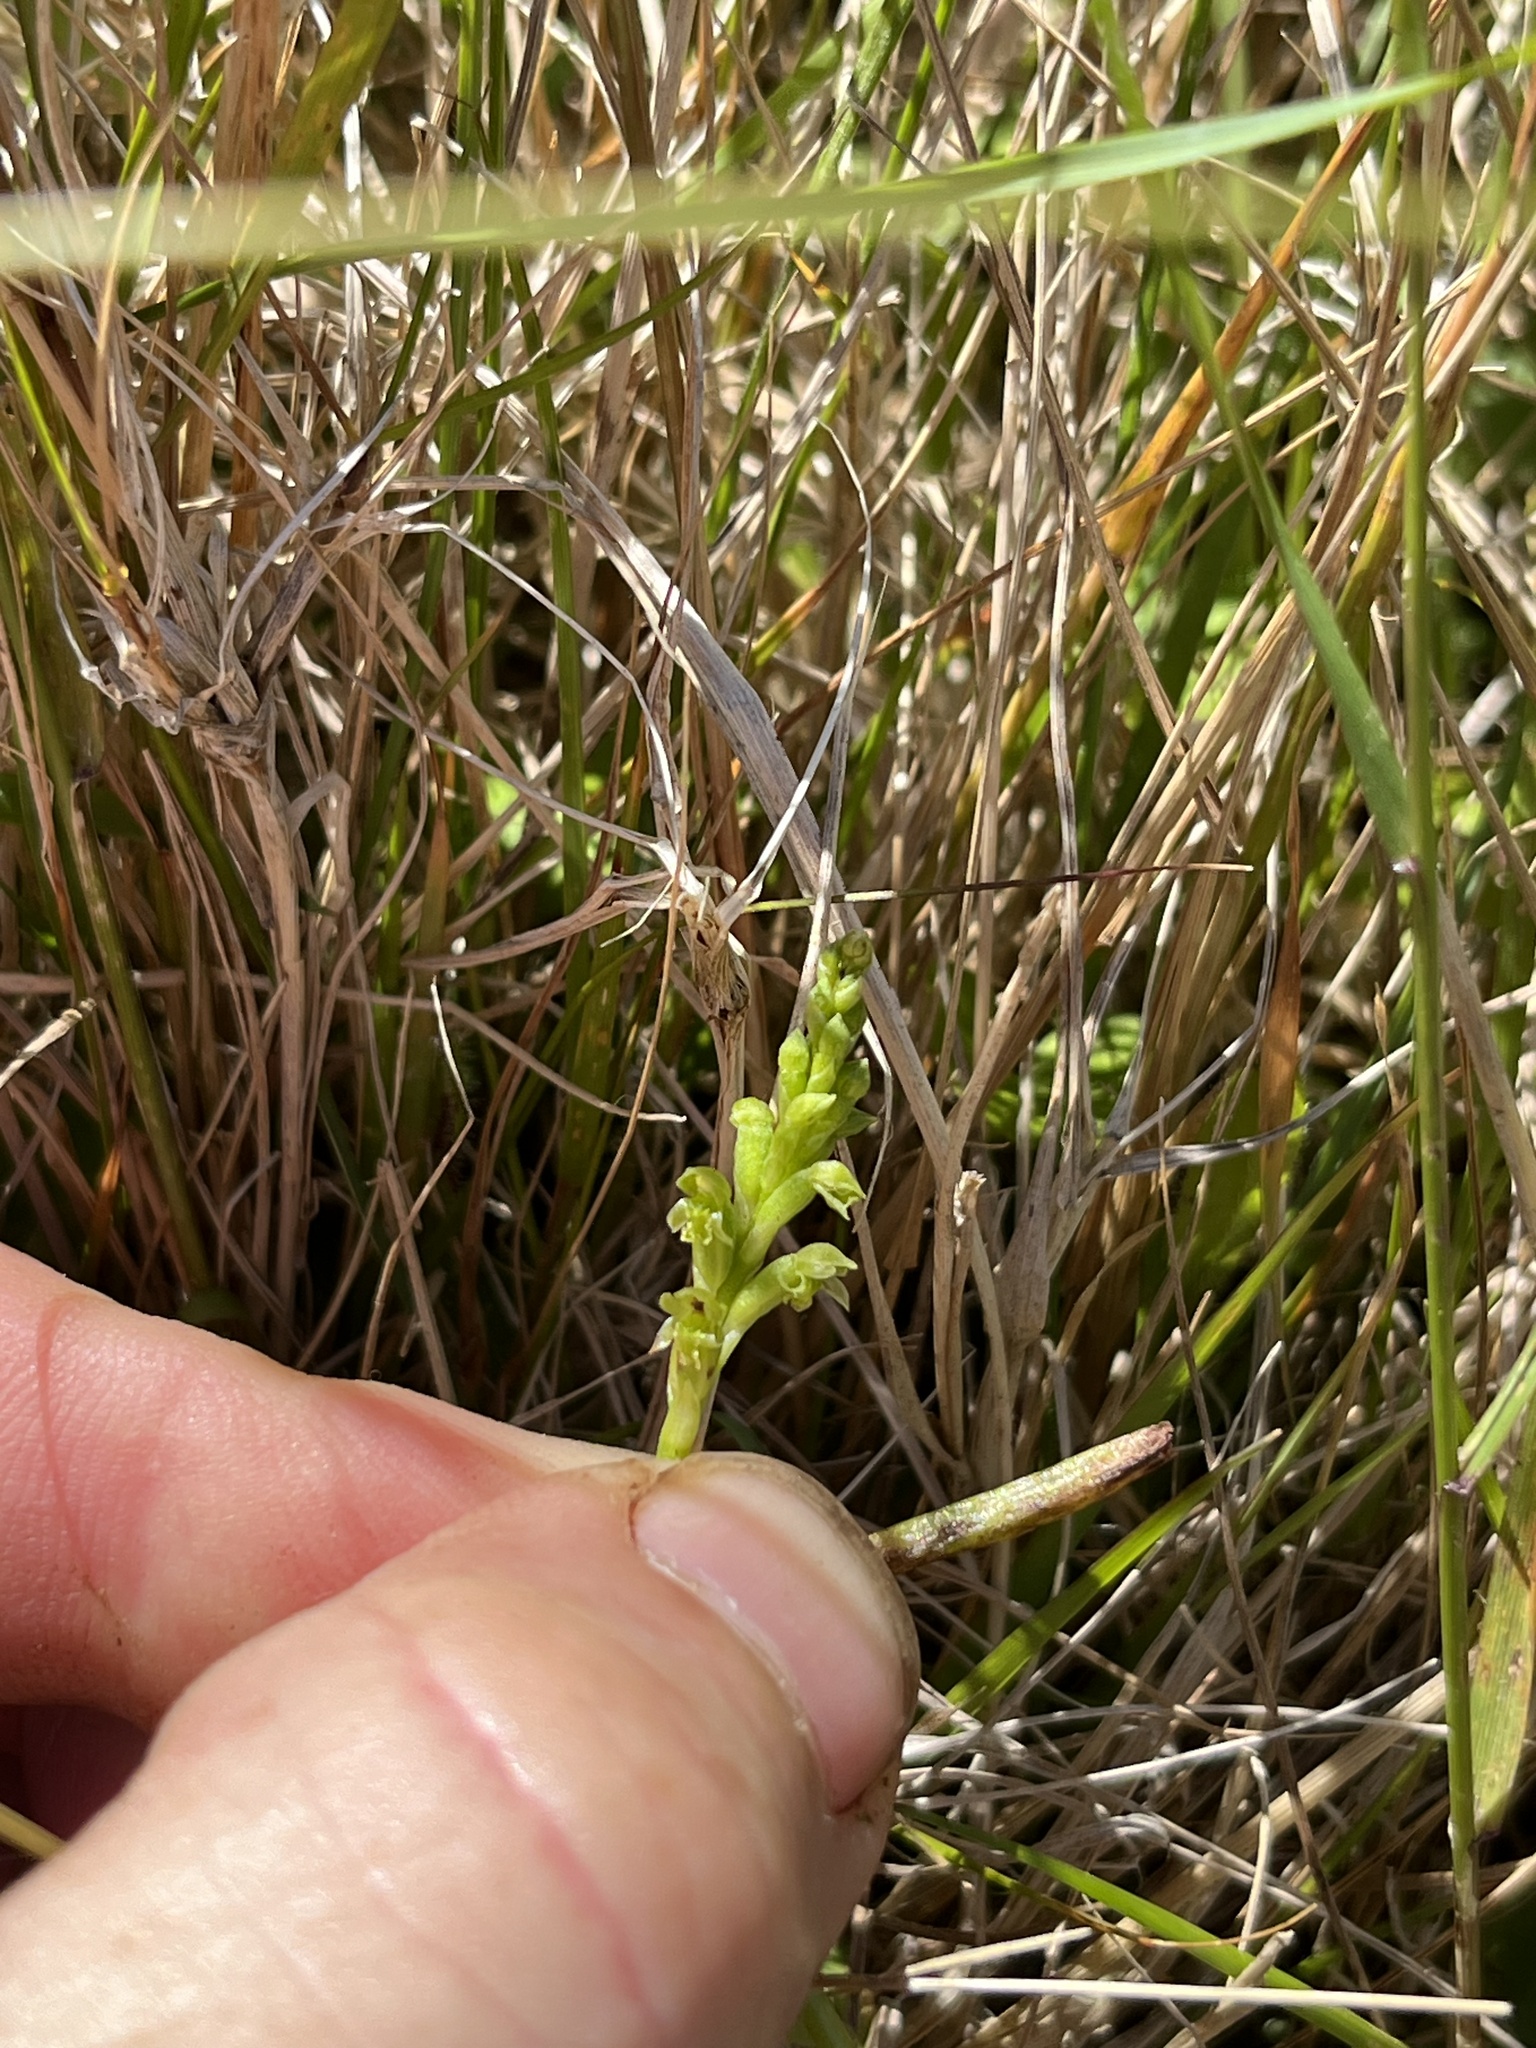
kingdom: Plantae
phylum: Tracheophyta
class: Liliopsida
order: Asparagales
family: Orchidaceae
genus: Microtis
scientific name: Microtis unifolia
